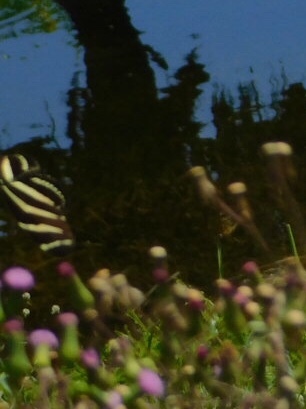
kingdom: Animalia
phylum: Arthropoda
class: Insecta
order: Lepidoptera
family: Nymphalidae
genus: Heliconius
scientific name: Heliconius charithonia
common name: Zebra long wing
